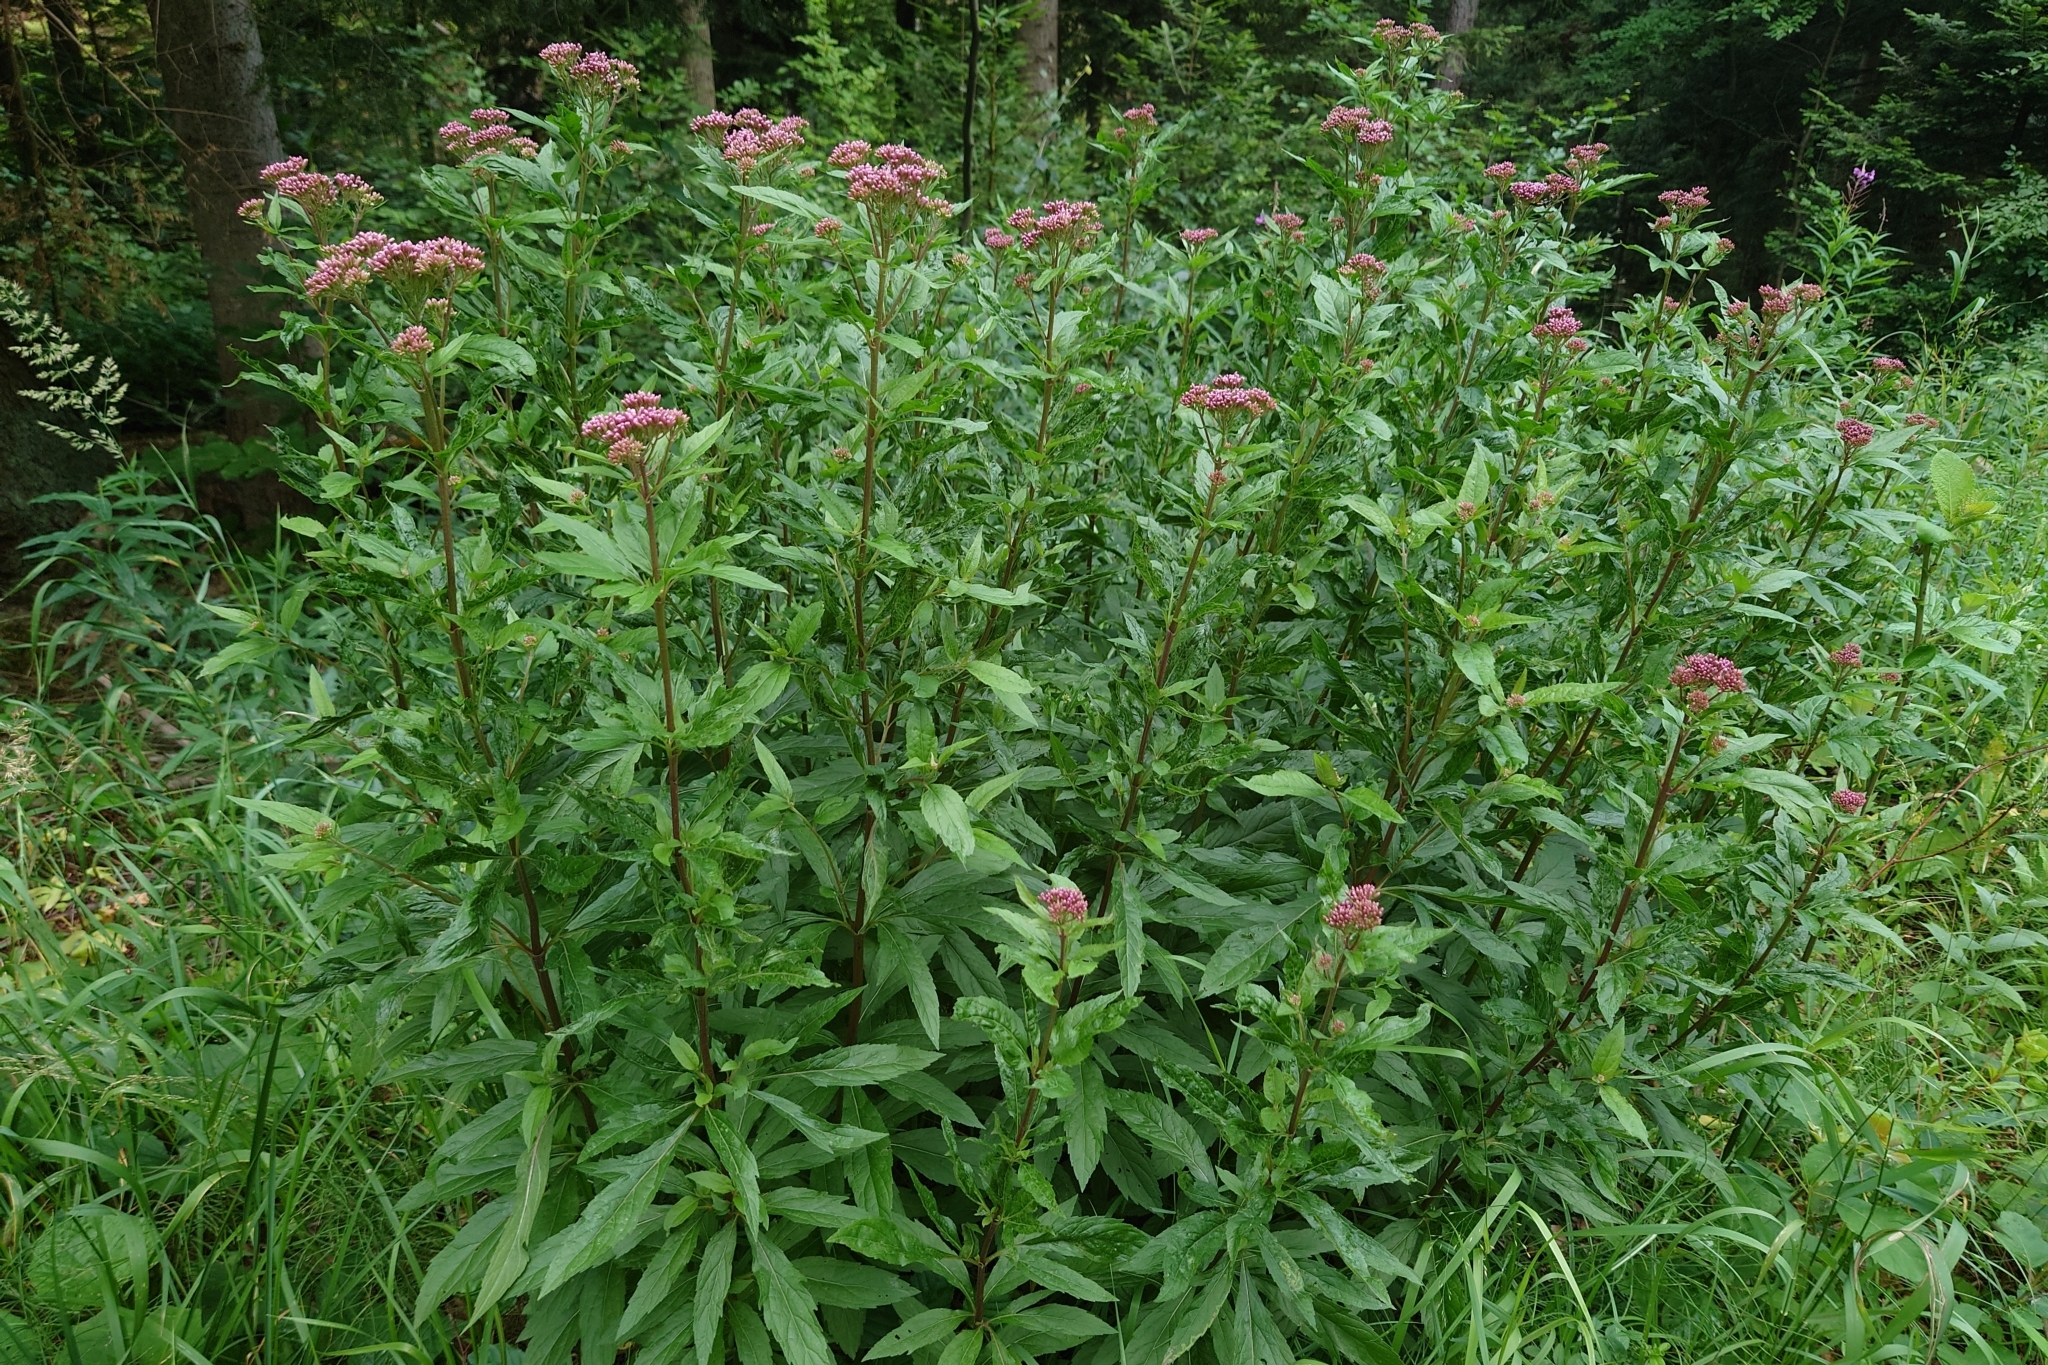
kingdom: Plantae
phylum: Tracheophyta
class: Magnoliopsida
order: Asterales
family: Asteraceae
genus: Eupatorium
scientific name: Eupatorium cannabinum
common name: Hemp-agrimony
